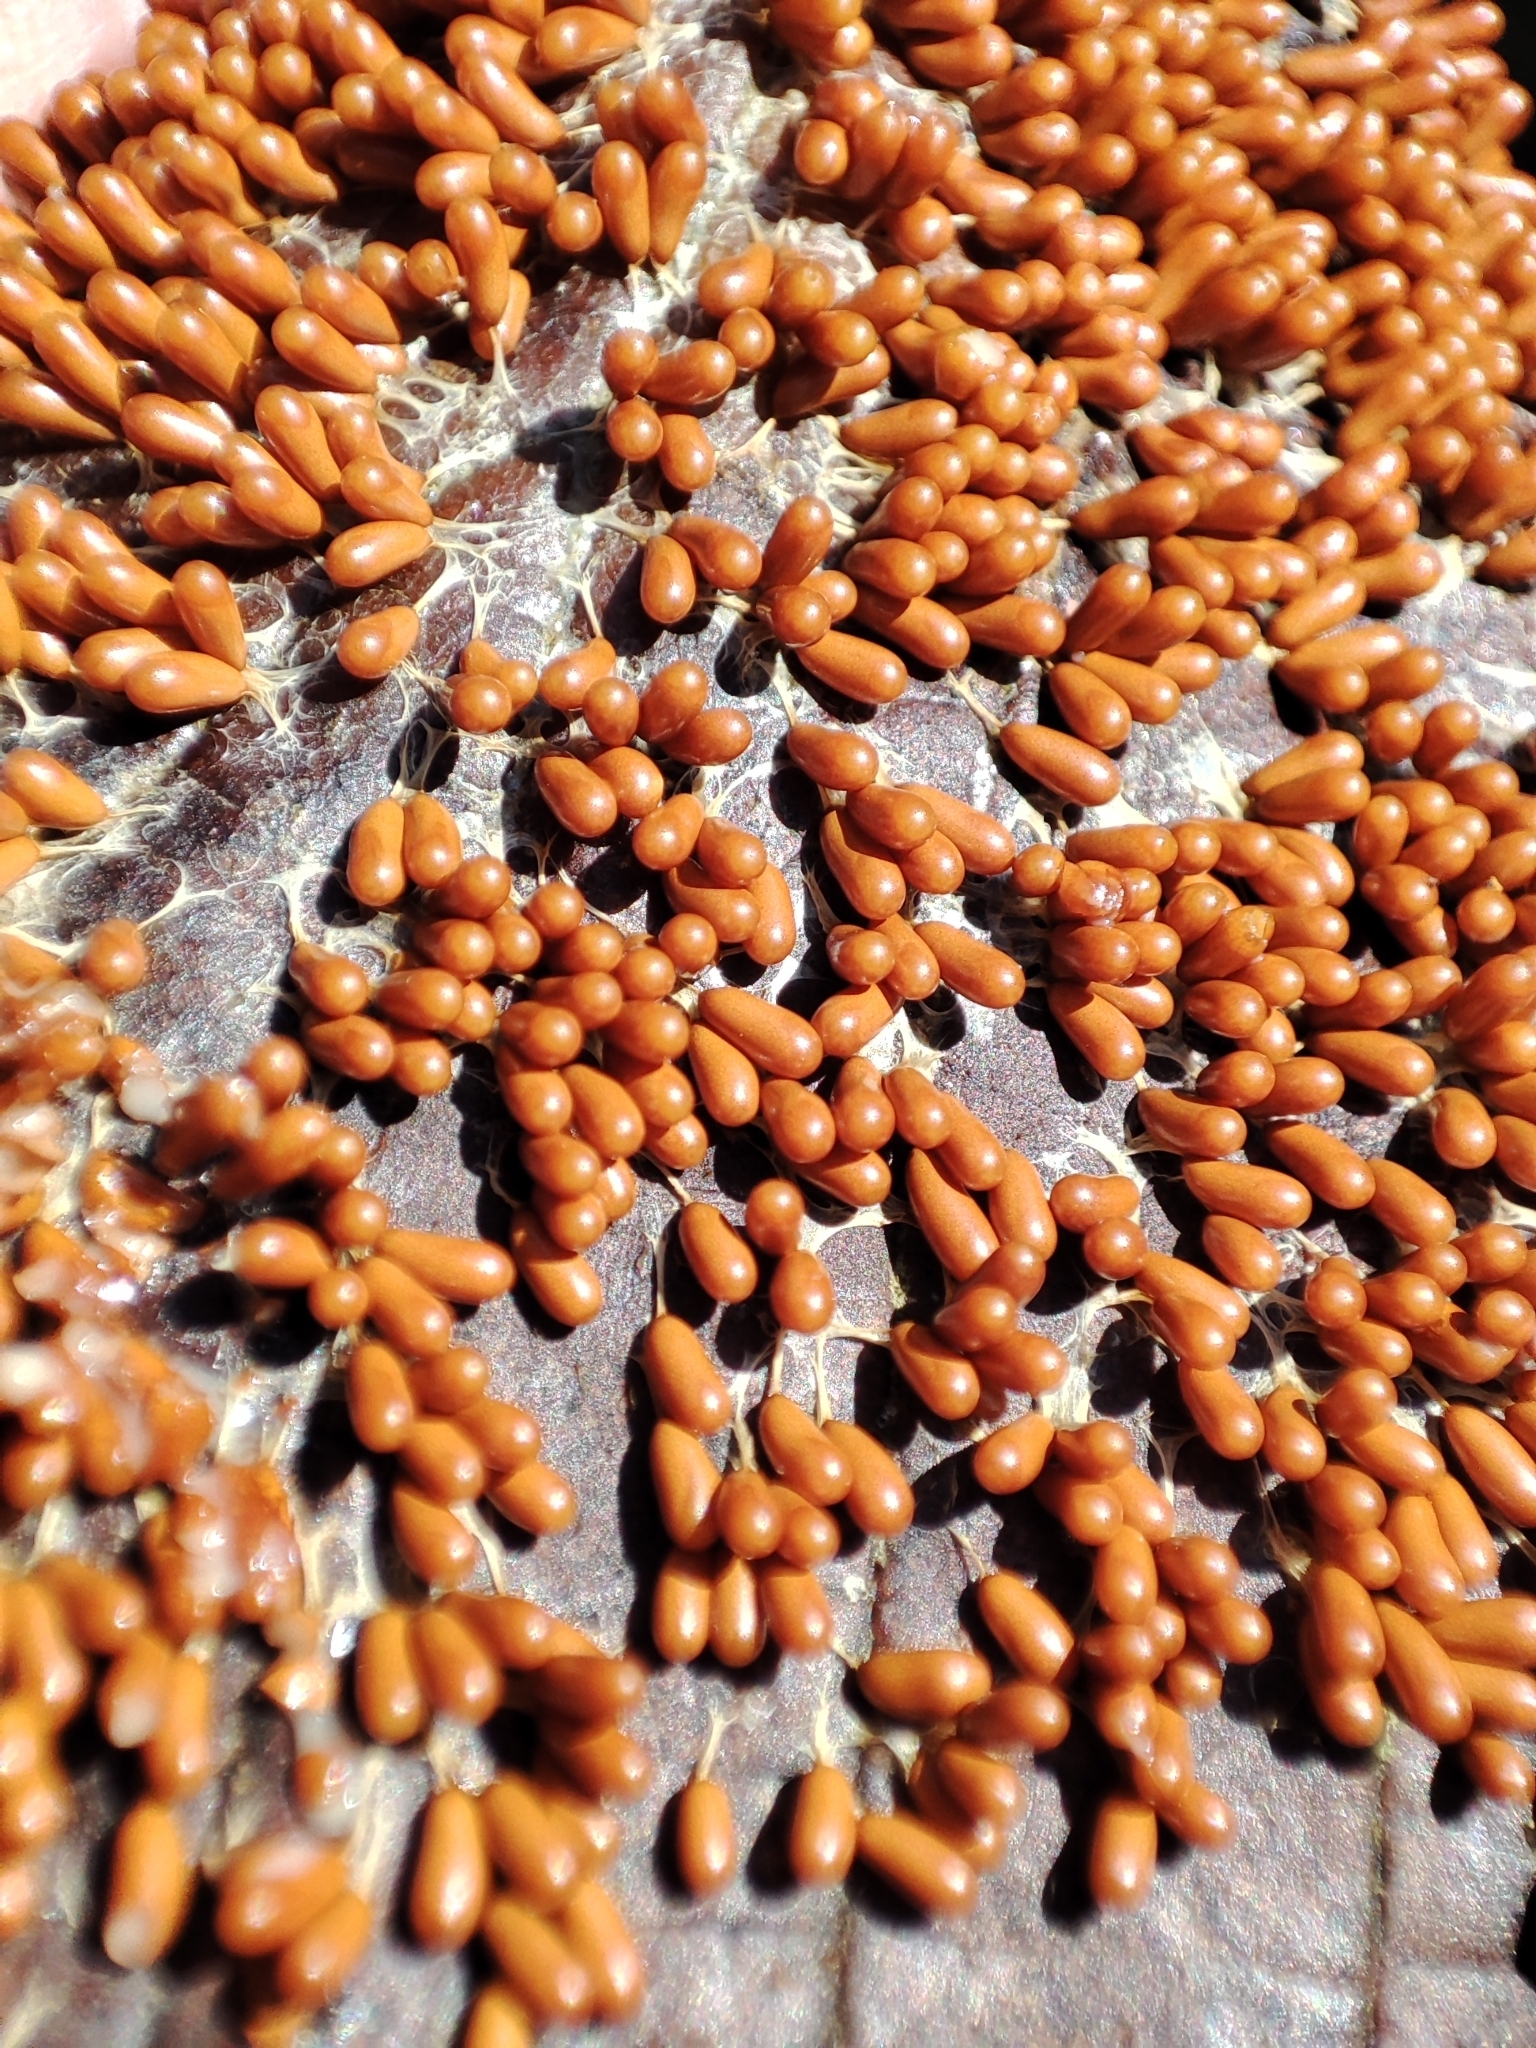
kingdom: Protozoa
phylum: Mycetozoa
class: Myxomycetes
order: Physarales
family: Physaraceae
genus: Leocarpus
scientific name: Leocarpus fragilis
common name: Insect-egg slime
